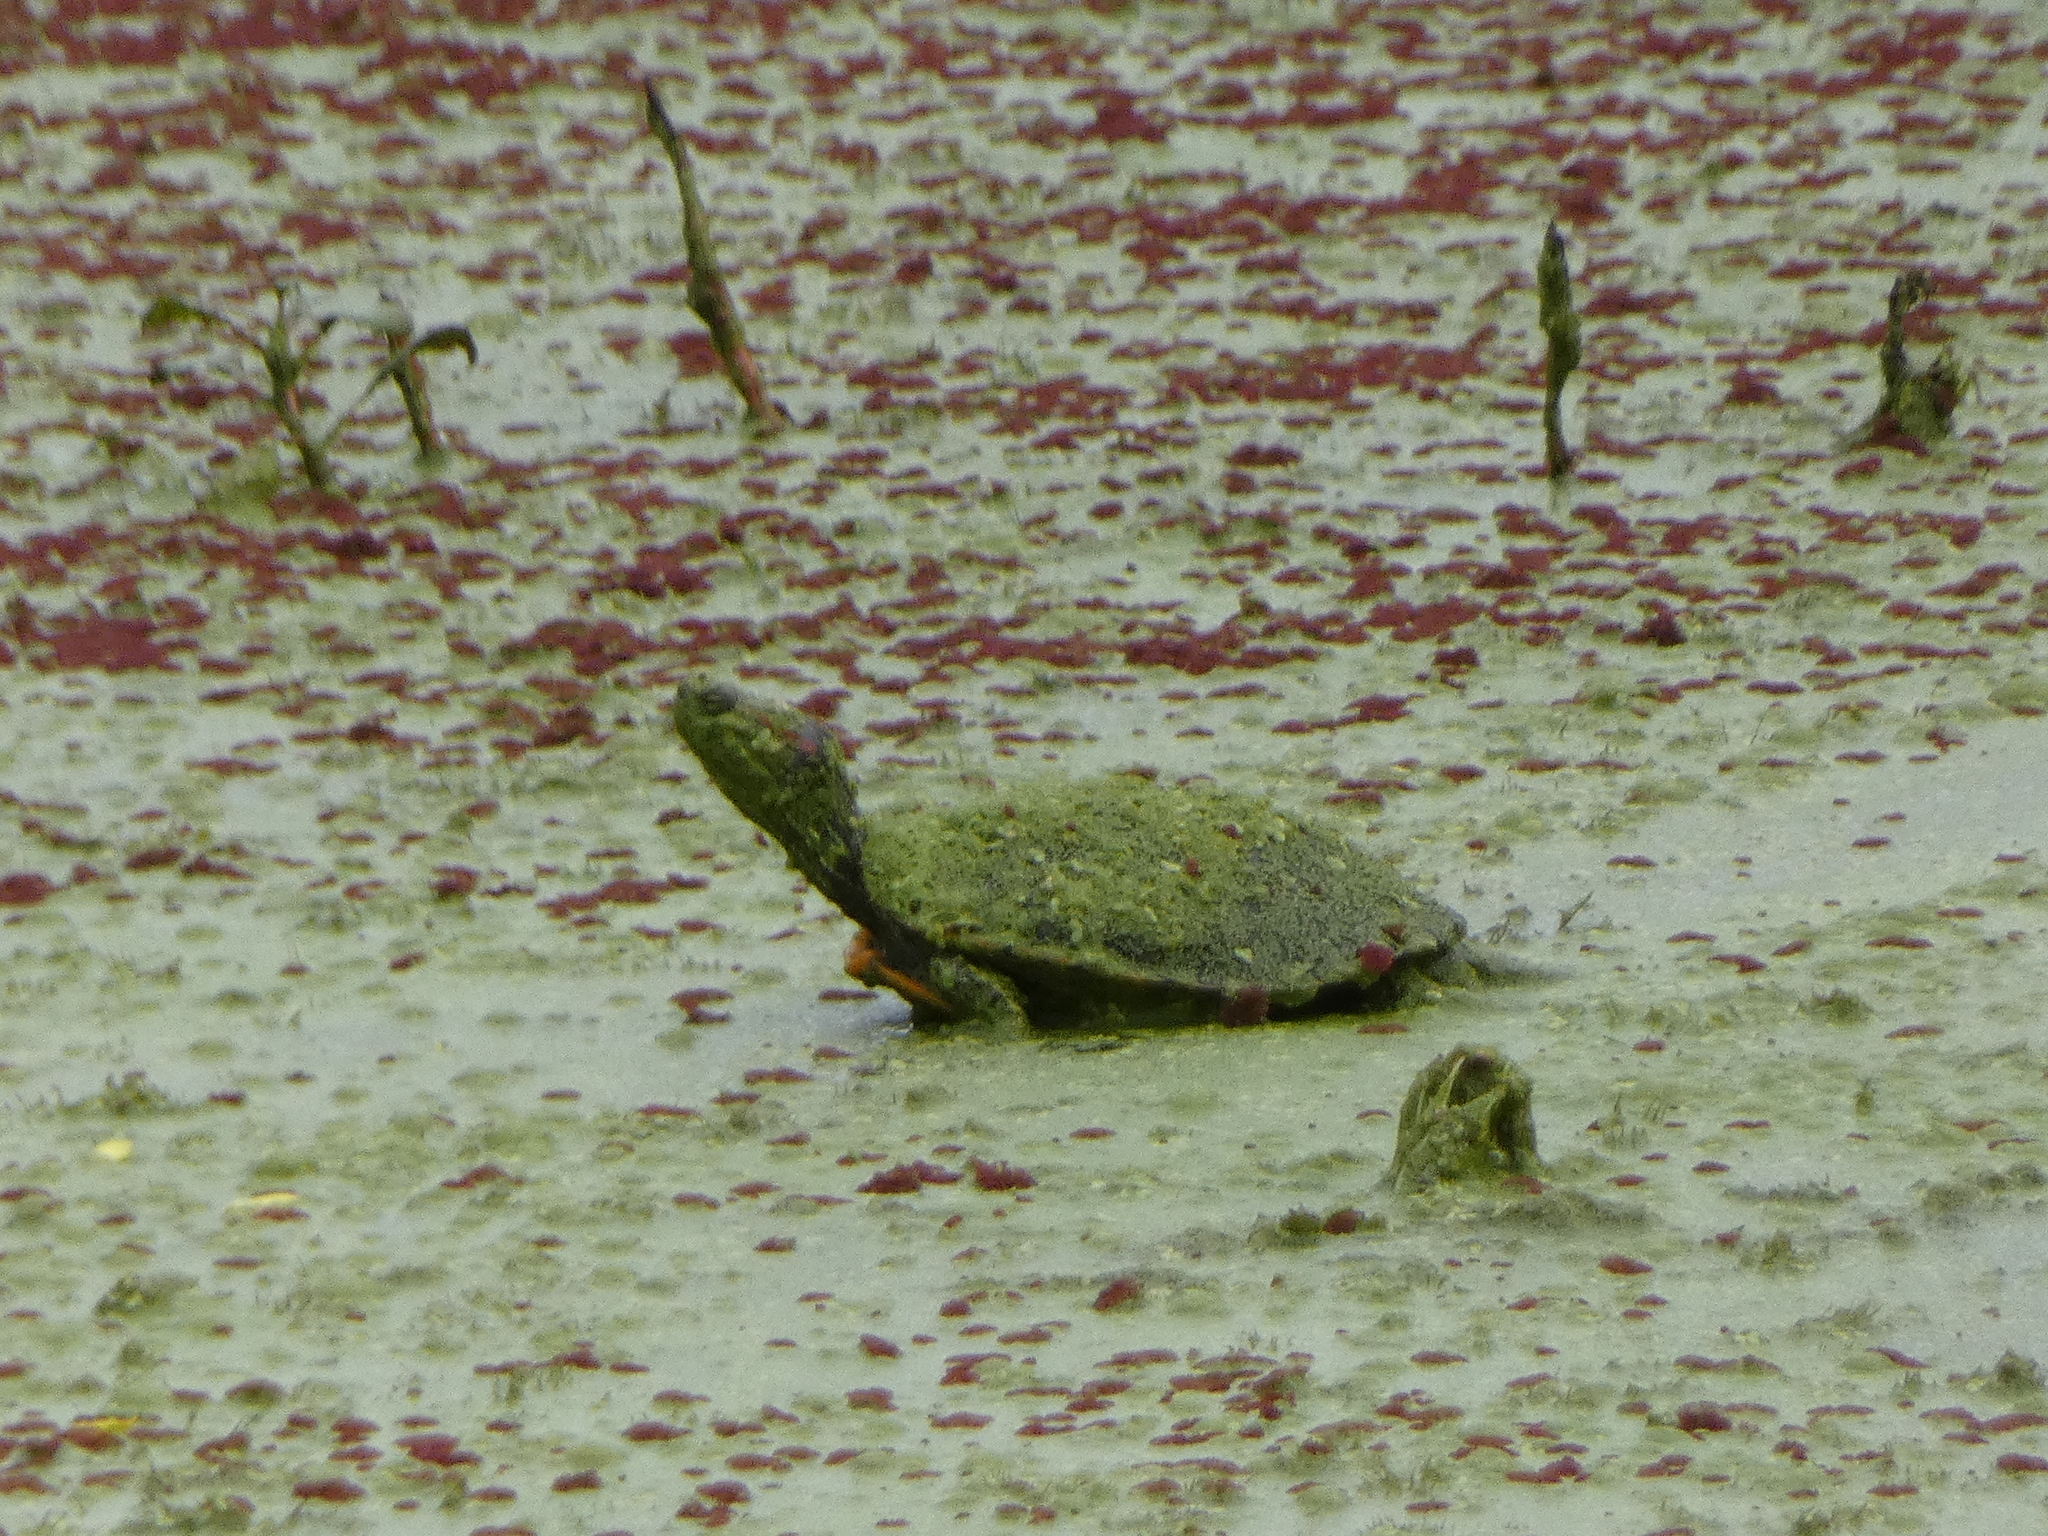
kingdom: Animalia
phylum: Chordata
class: Testudines
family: Emydidae
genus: Trachemys
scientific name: Trachemys scripta
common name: Slider
